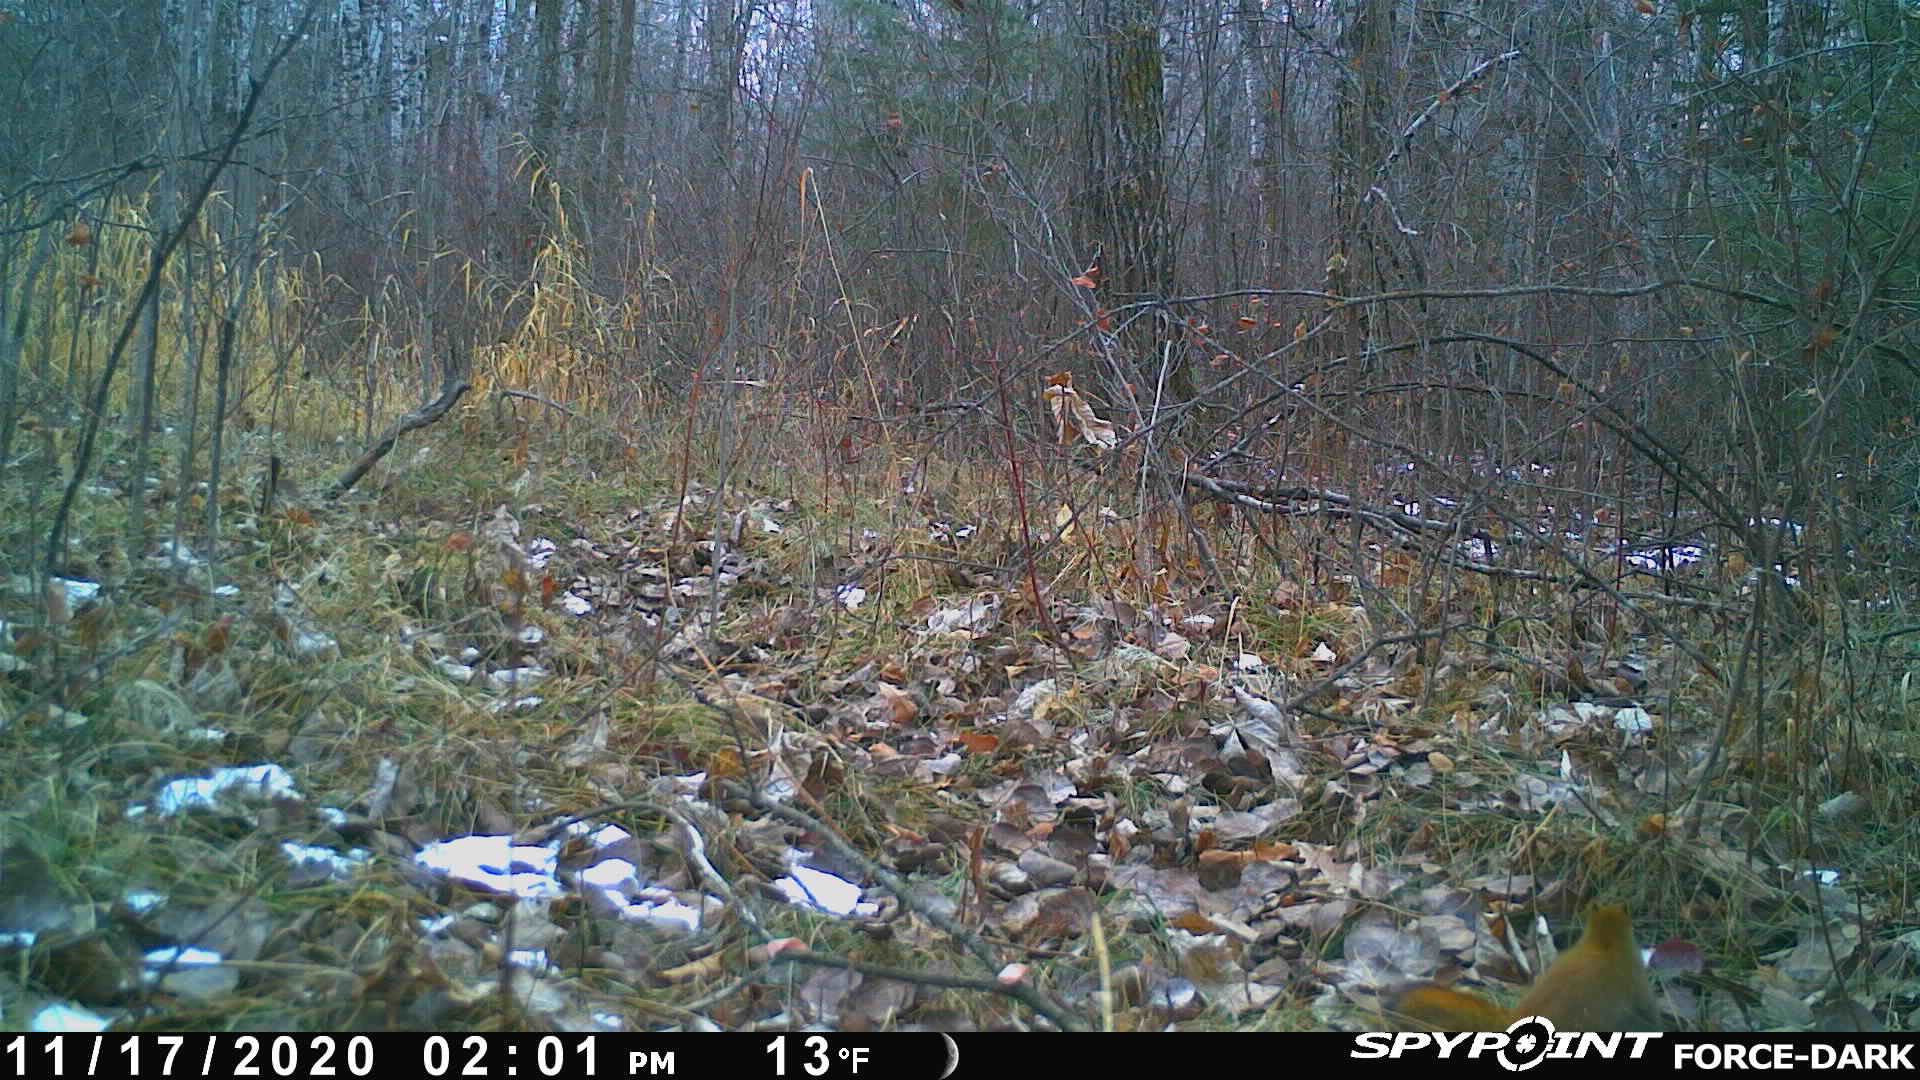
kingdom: Animalia
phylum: Chordata
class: Mammalia
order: Rodentia
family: Sciuridae
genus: Tamiasciurus
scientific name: Tamiasciurus hudsonicus
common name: Red squirrel
